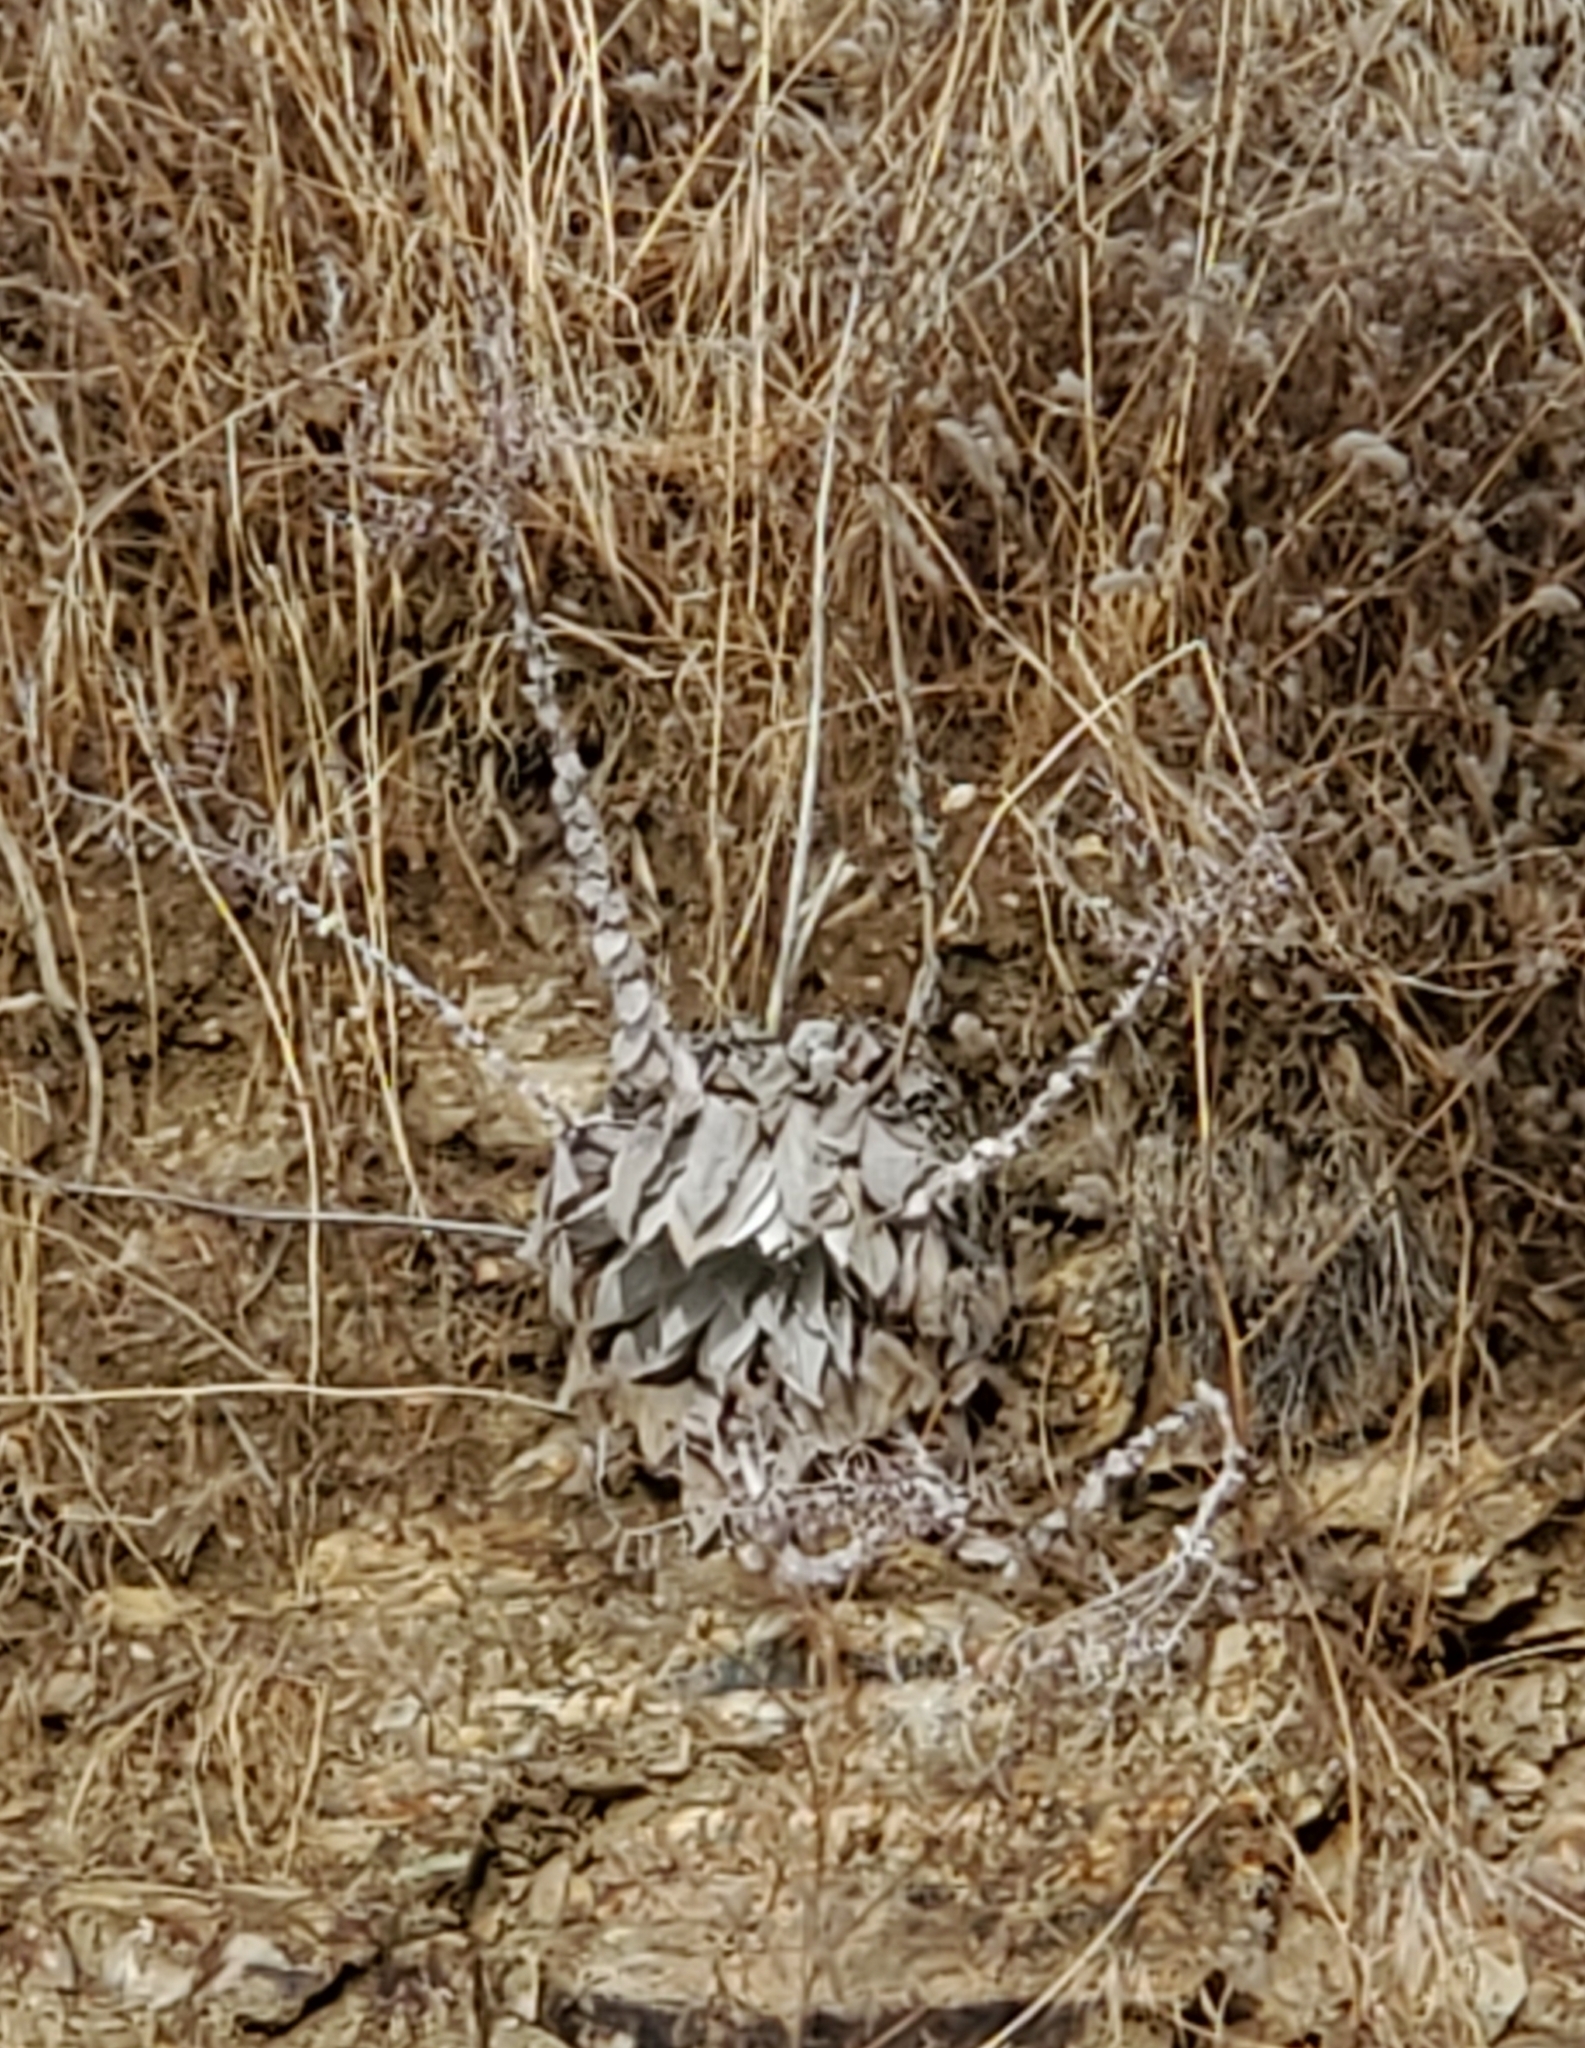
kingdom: Plantae
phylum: Tracheophyta
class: Magnoliopsida
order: Saxifragales
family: Crassulaceae
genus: Dudleya
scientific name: Dudleya pulverulenta
